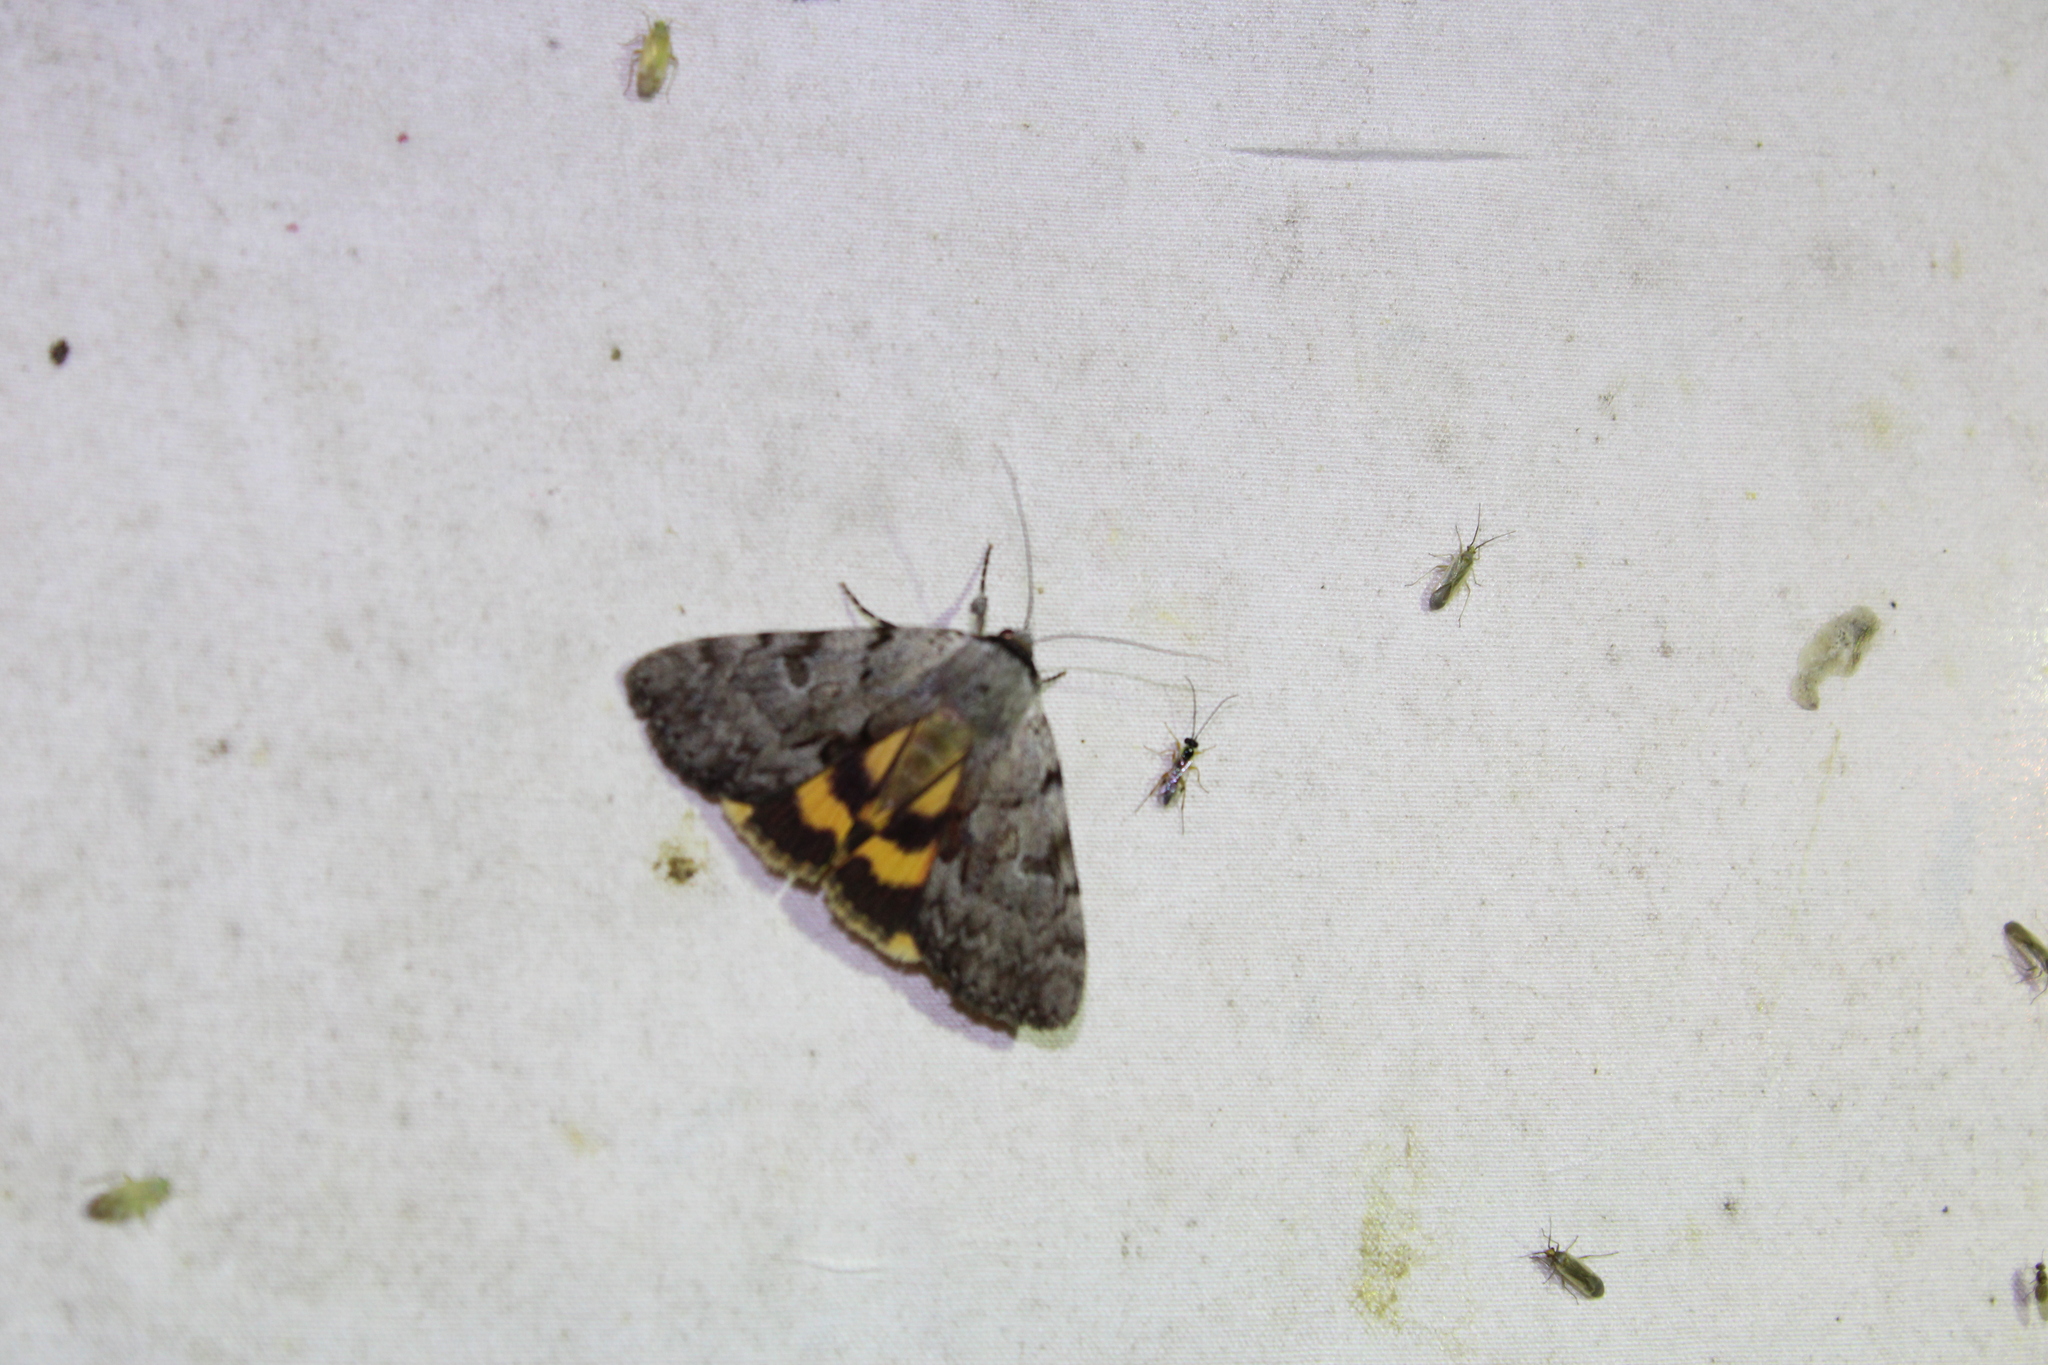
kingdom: Animalia
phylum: Arthropoda
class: Insecta
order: Lepidoptera
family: Erebidae
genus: Catocala
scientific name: Catocala sordida
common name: Sordid underwing
